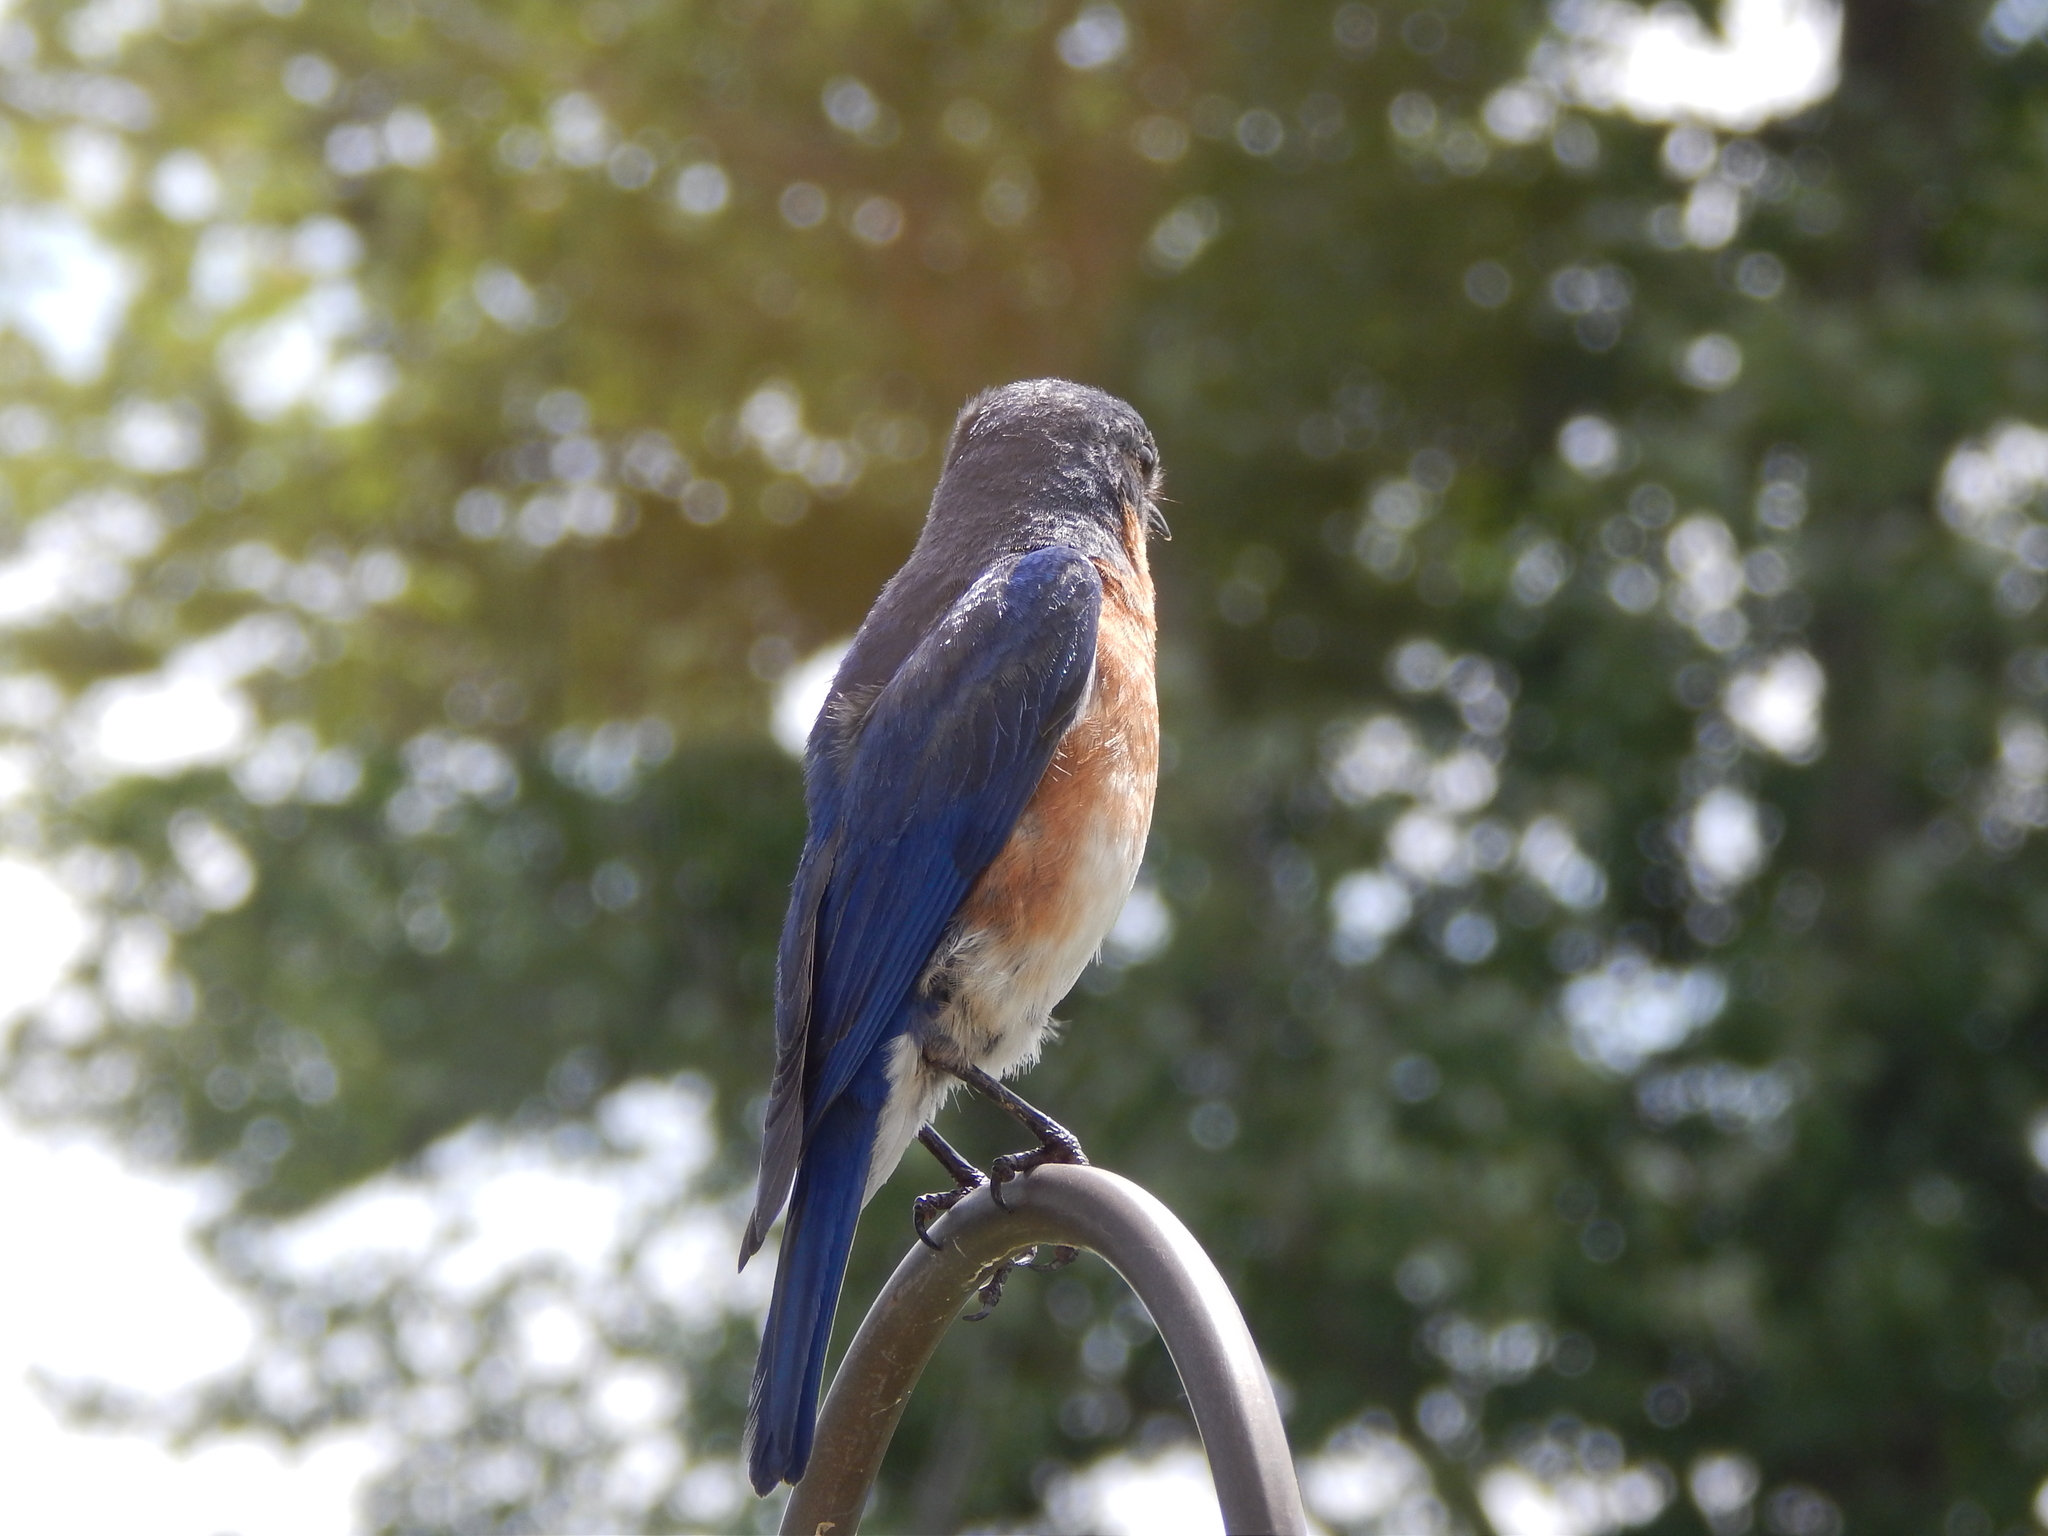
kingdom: Animalia
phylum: Chordata
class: Aves
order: Passeriformes
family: Turdidae
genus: Sialia
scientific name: Sialia sialis
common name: Eastern bluebird
